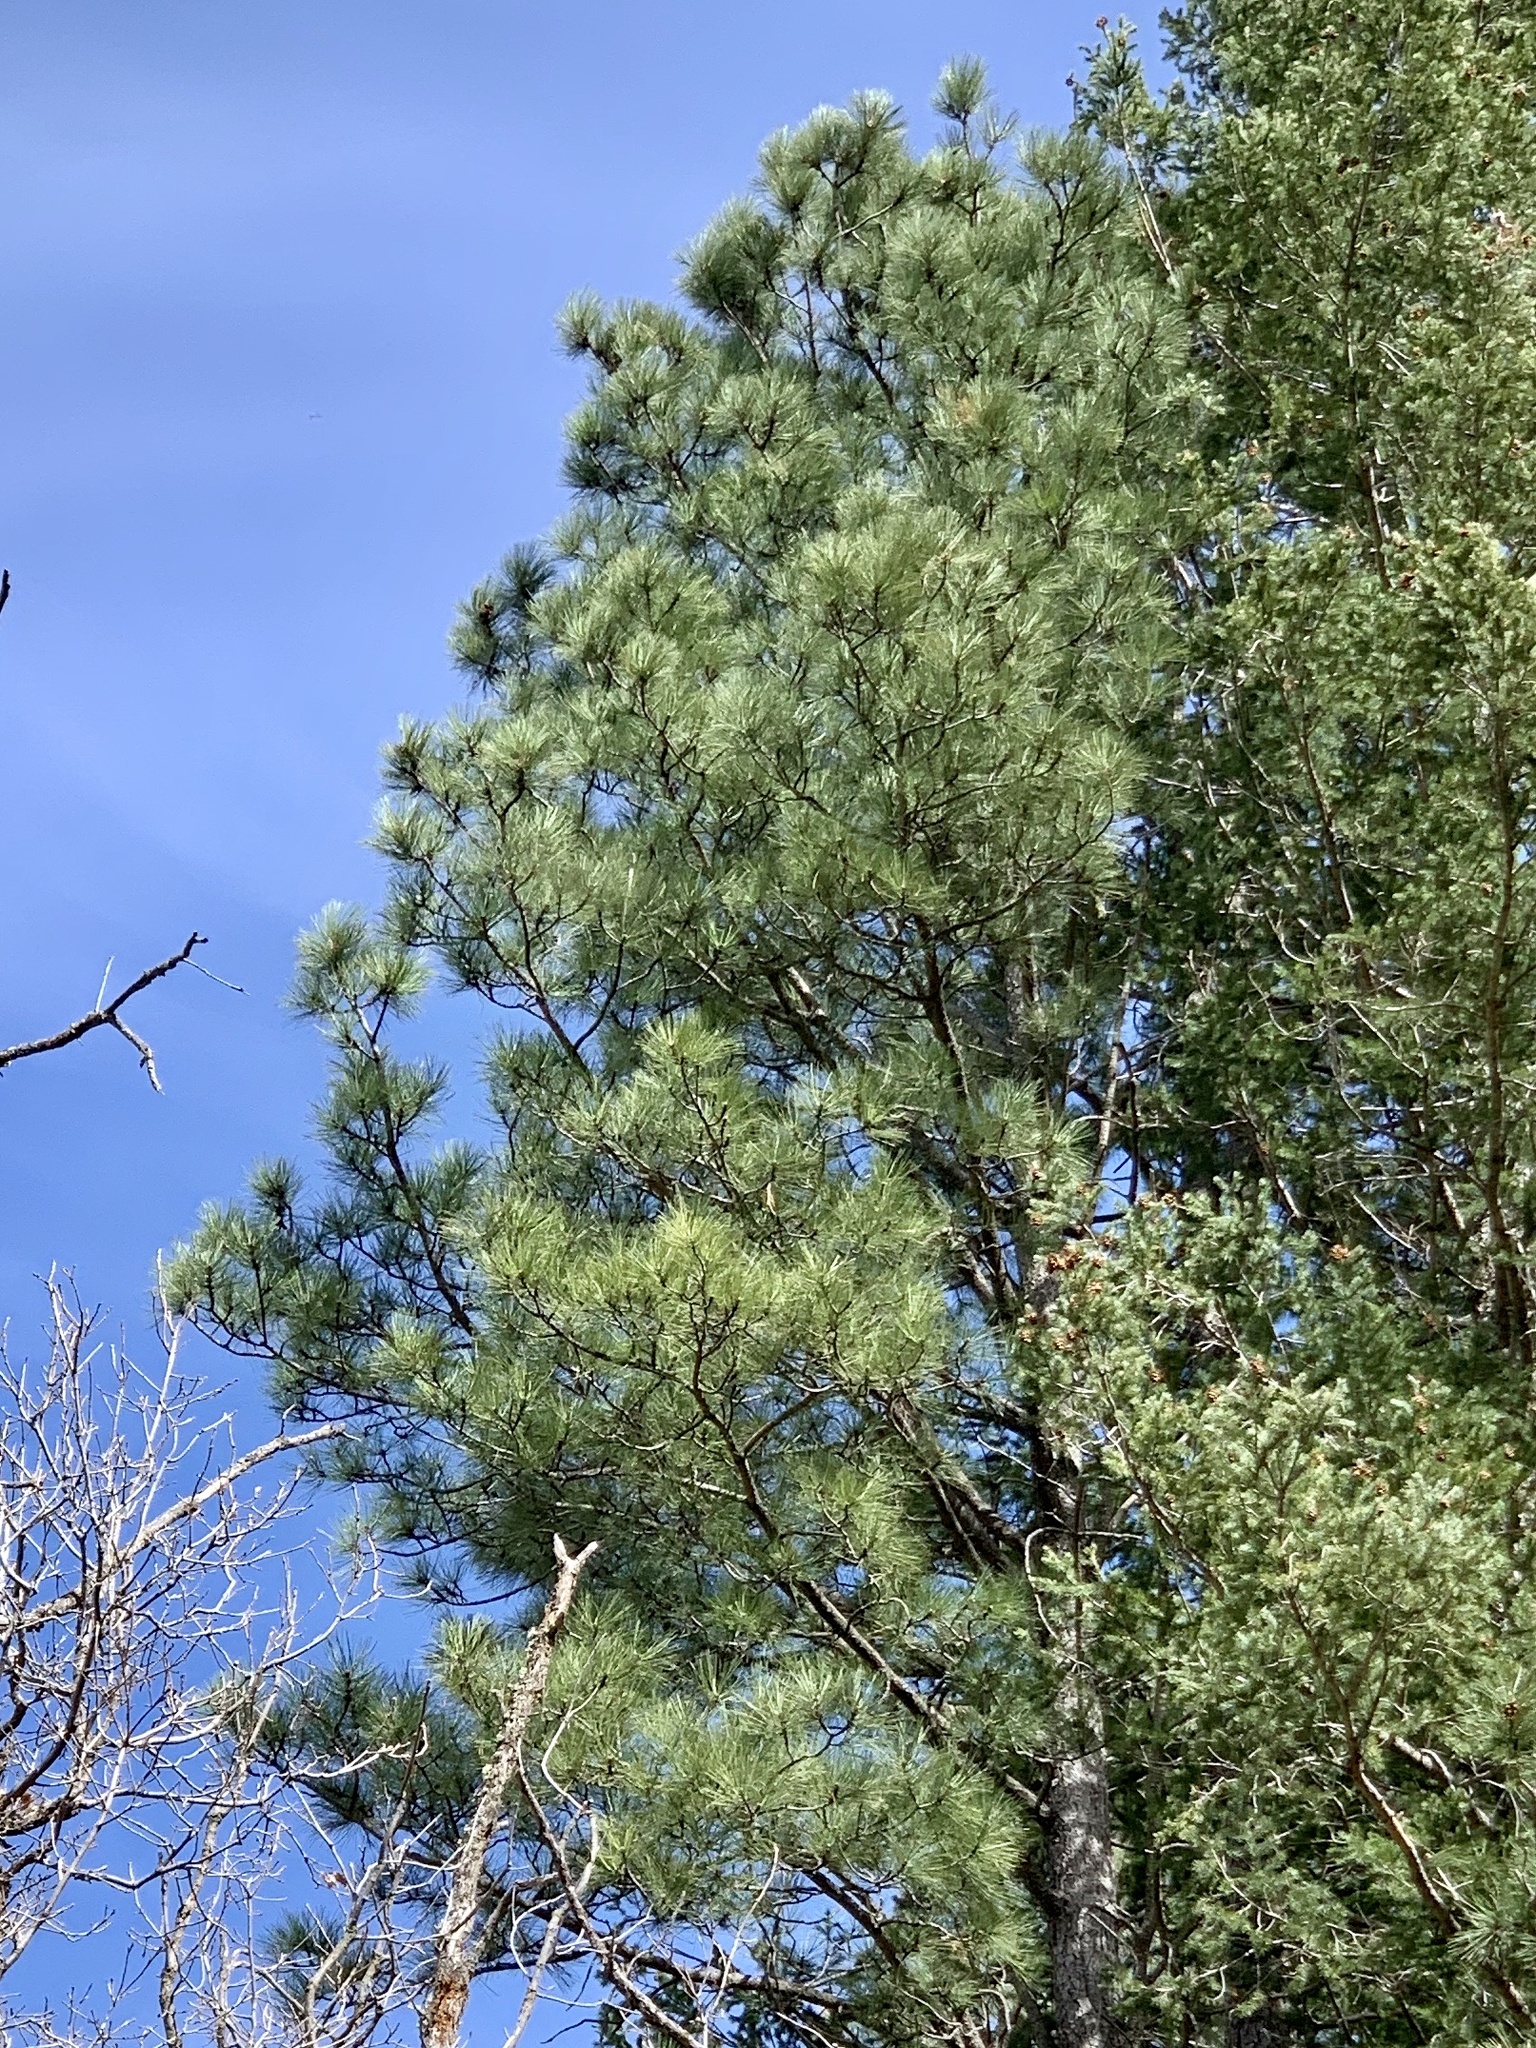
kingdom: Plantae
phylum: Tracheophyta
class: Pinopsida
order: Pinales
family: Pinaceae
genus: Pinus
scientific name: Pinus ponderosa
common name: Western yellow-pine
